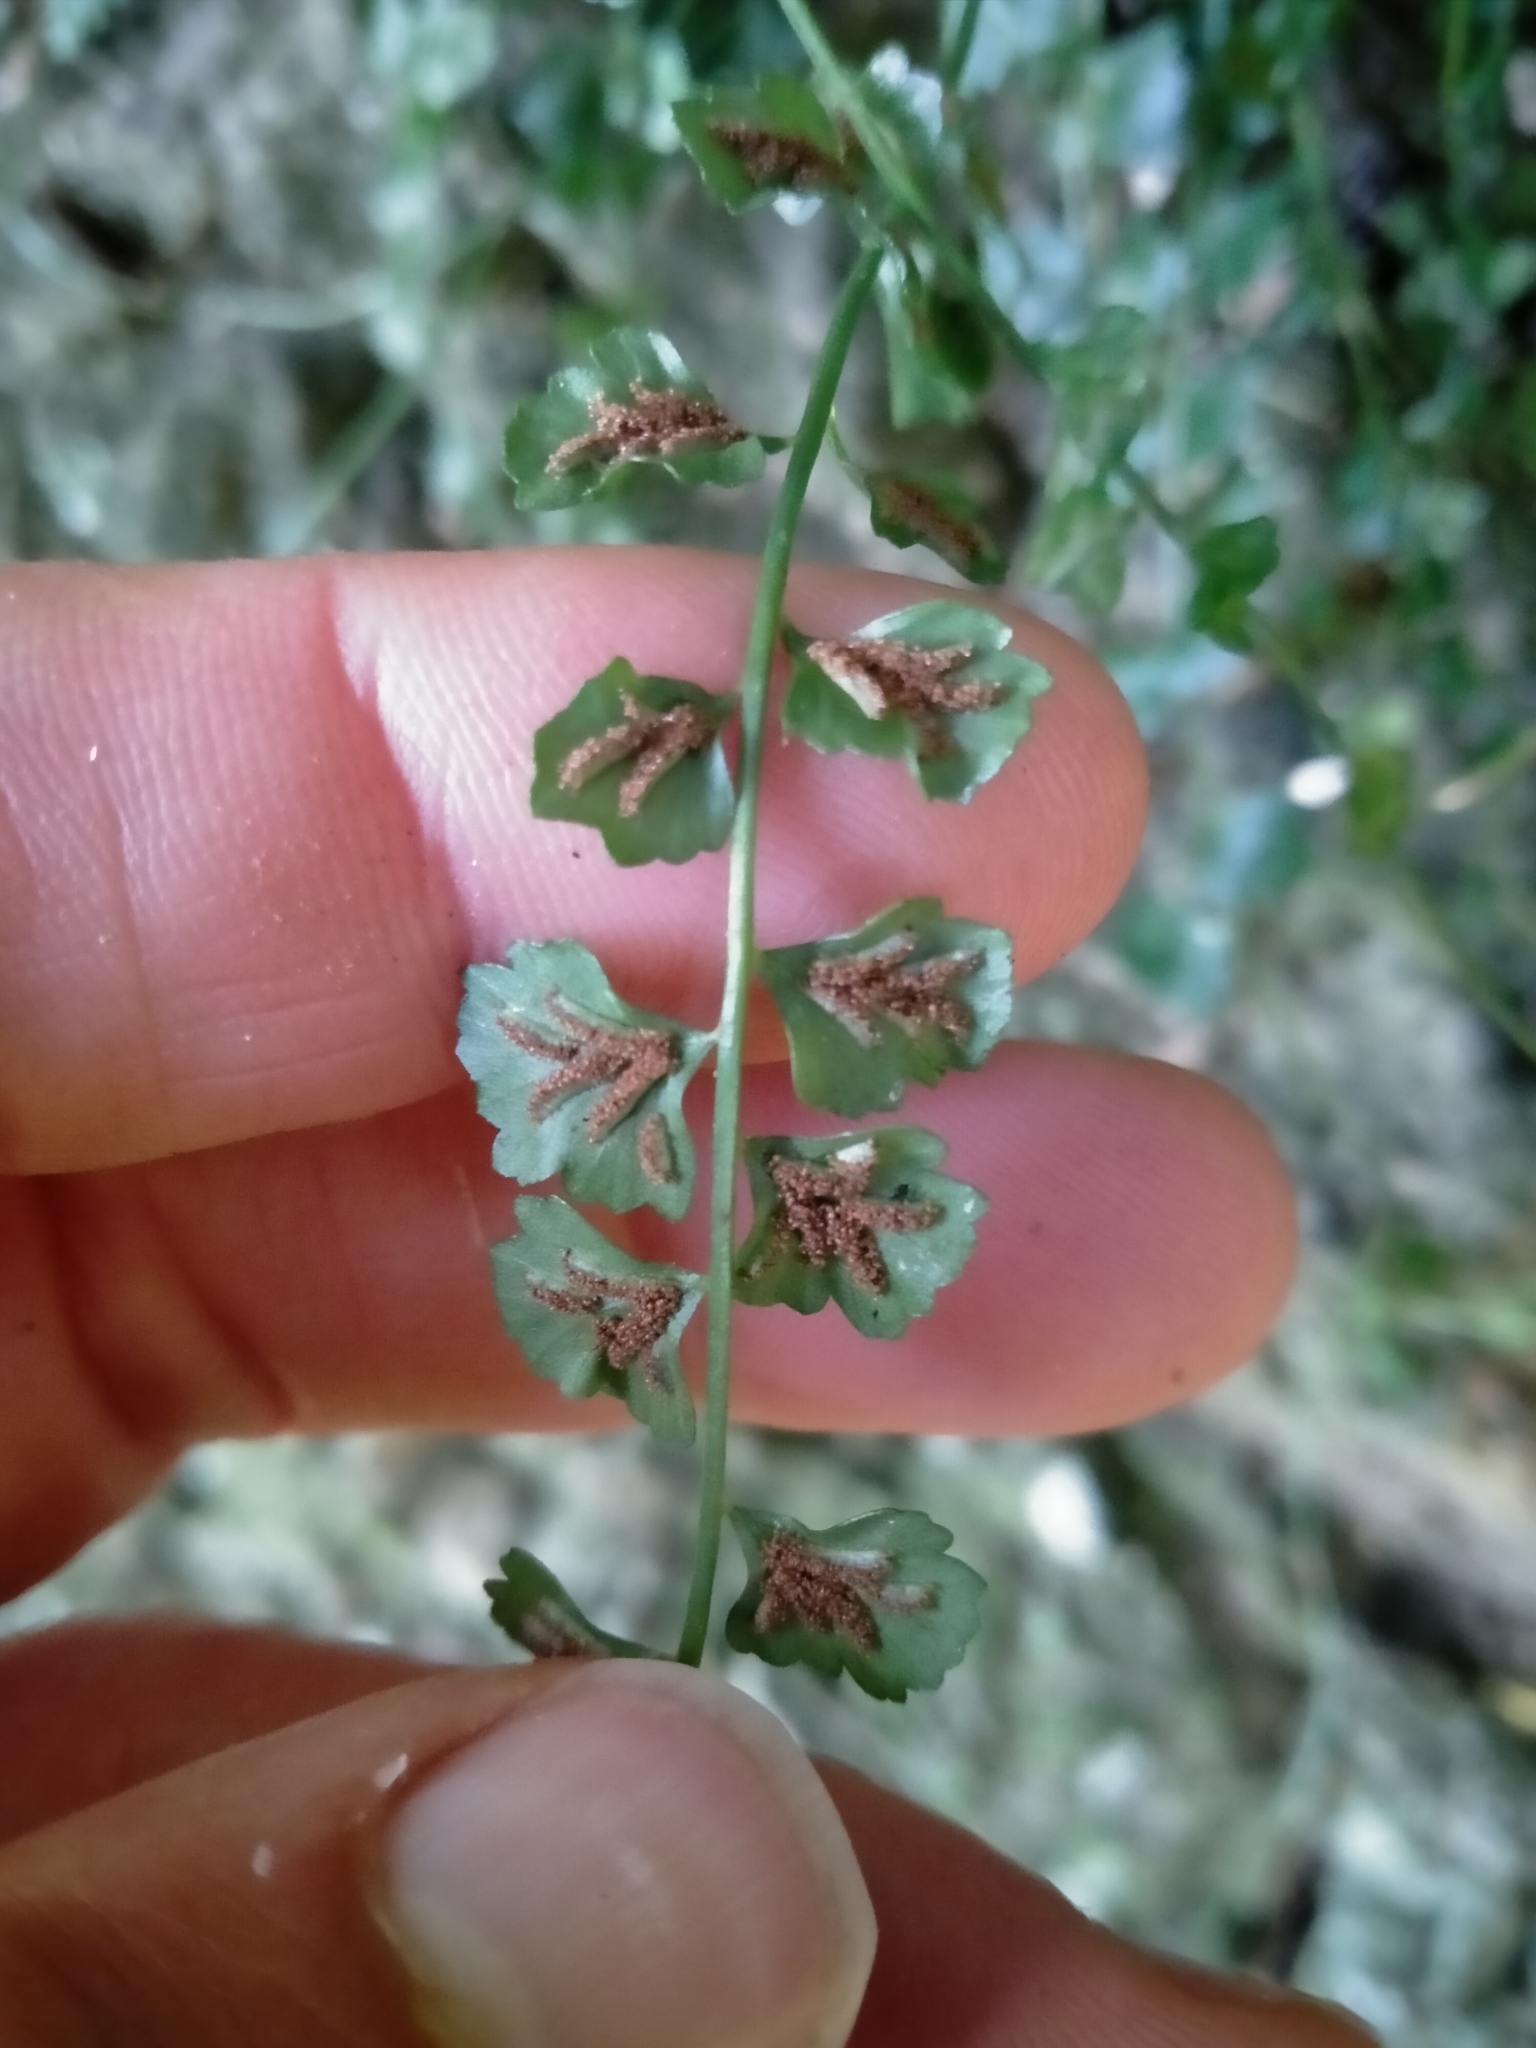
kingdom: Plantae
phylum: Tracheophyta
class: Polypodiopsida
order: Polypodiales
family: Aspleniaceae
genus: Asplenium
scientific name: Asplenium flabellifolium
